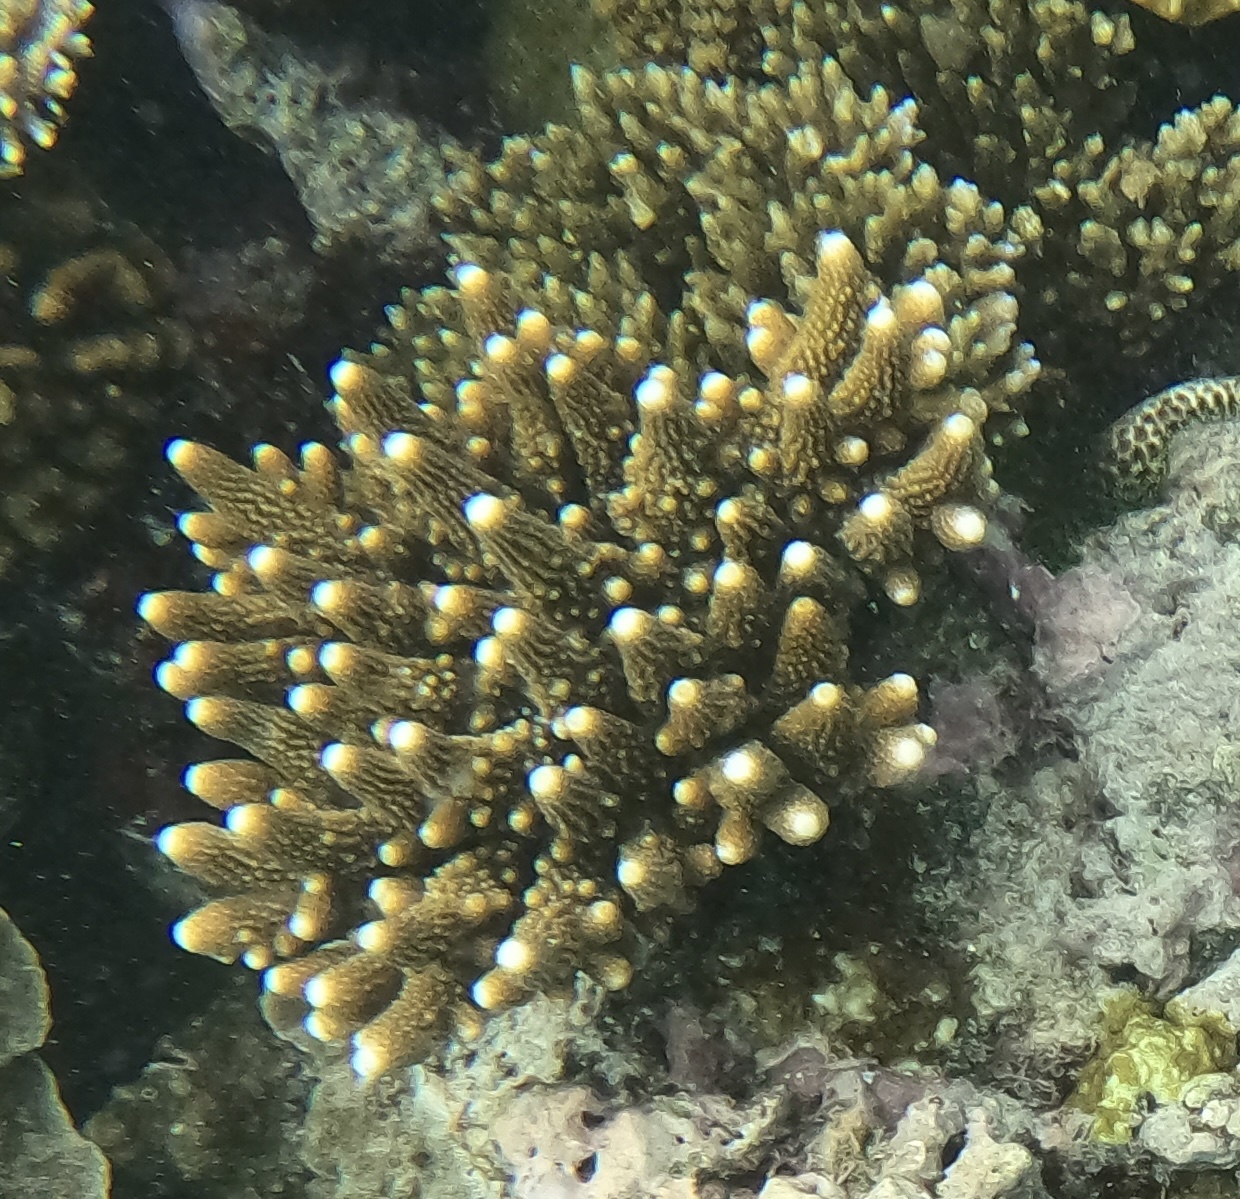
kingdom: Animalia
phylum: Cnidaria
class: Anthozoa
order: Scleractinia
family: Acroporidae
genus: Acropora
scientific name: Acropora humilis
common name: Finger coral
